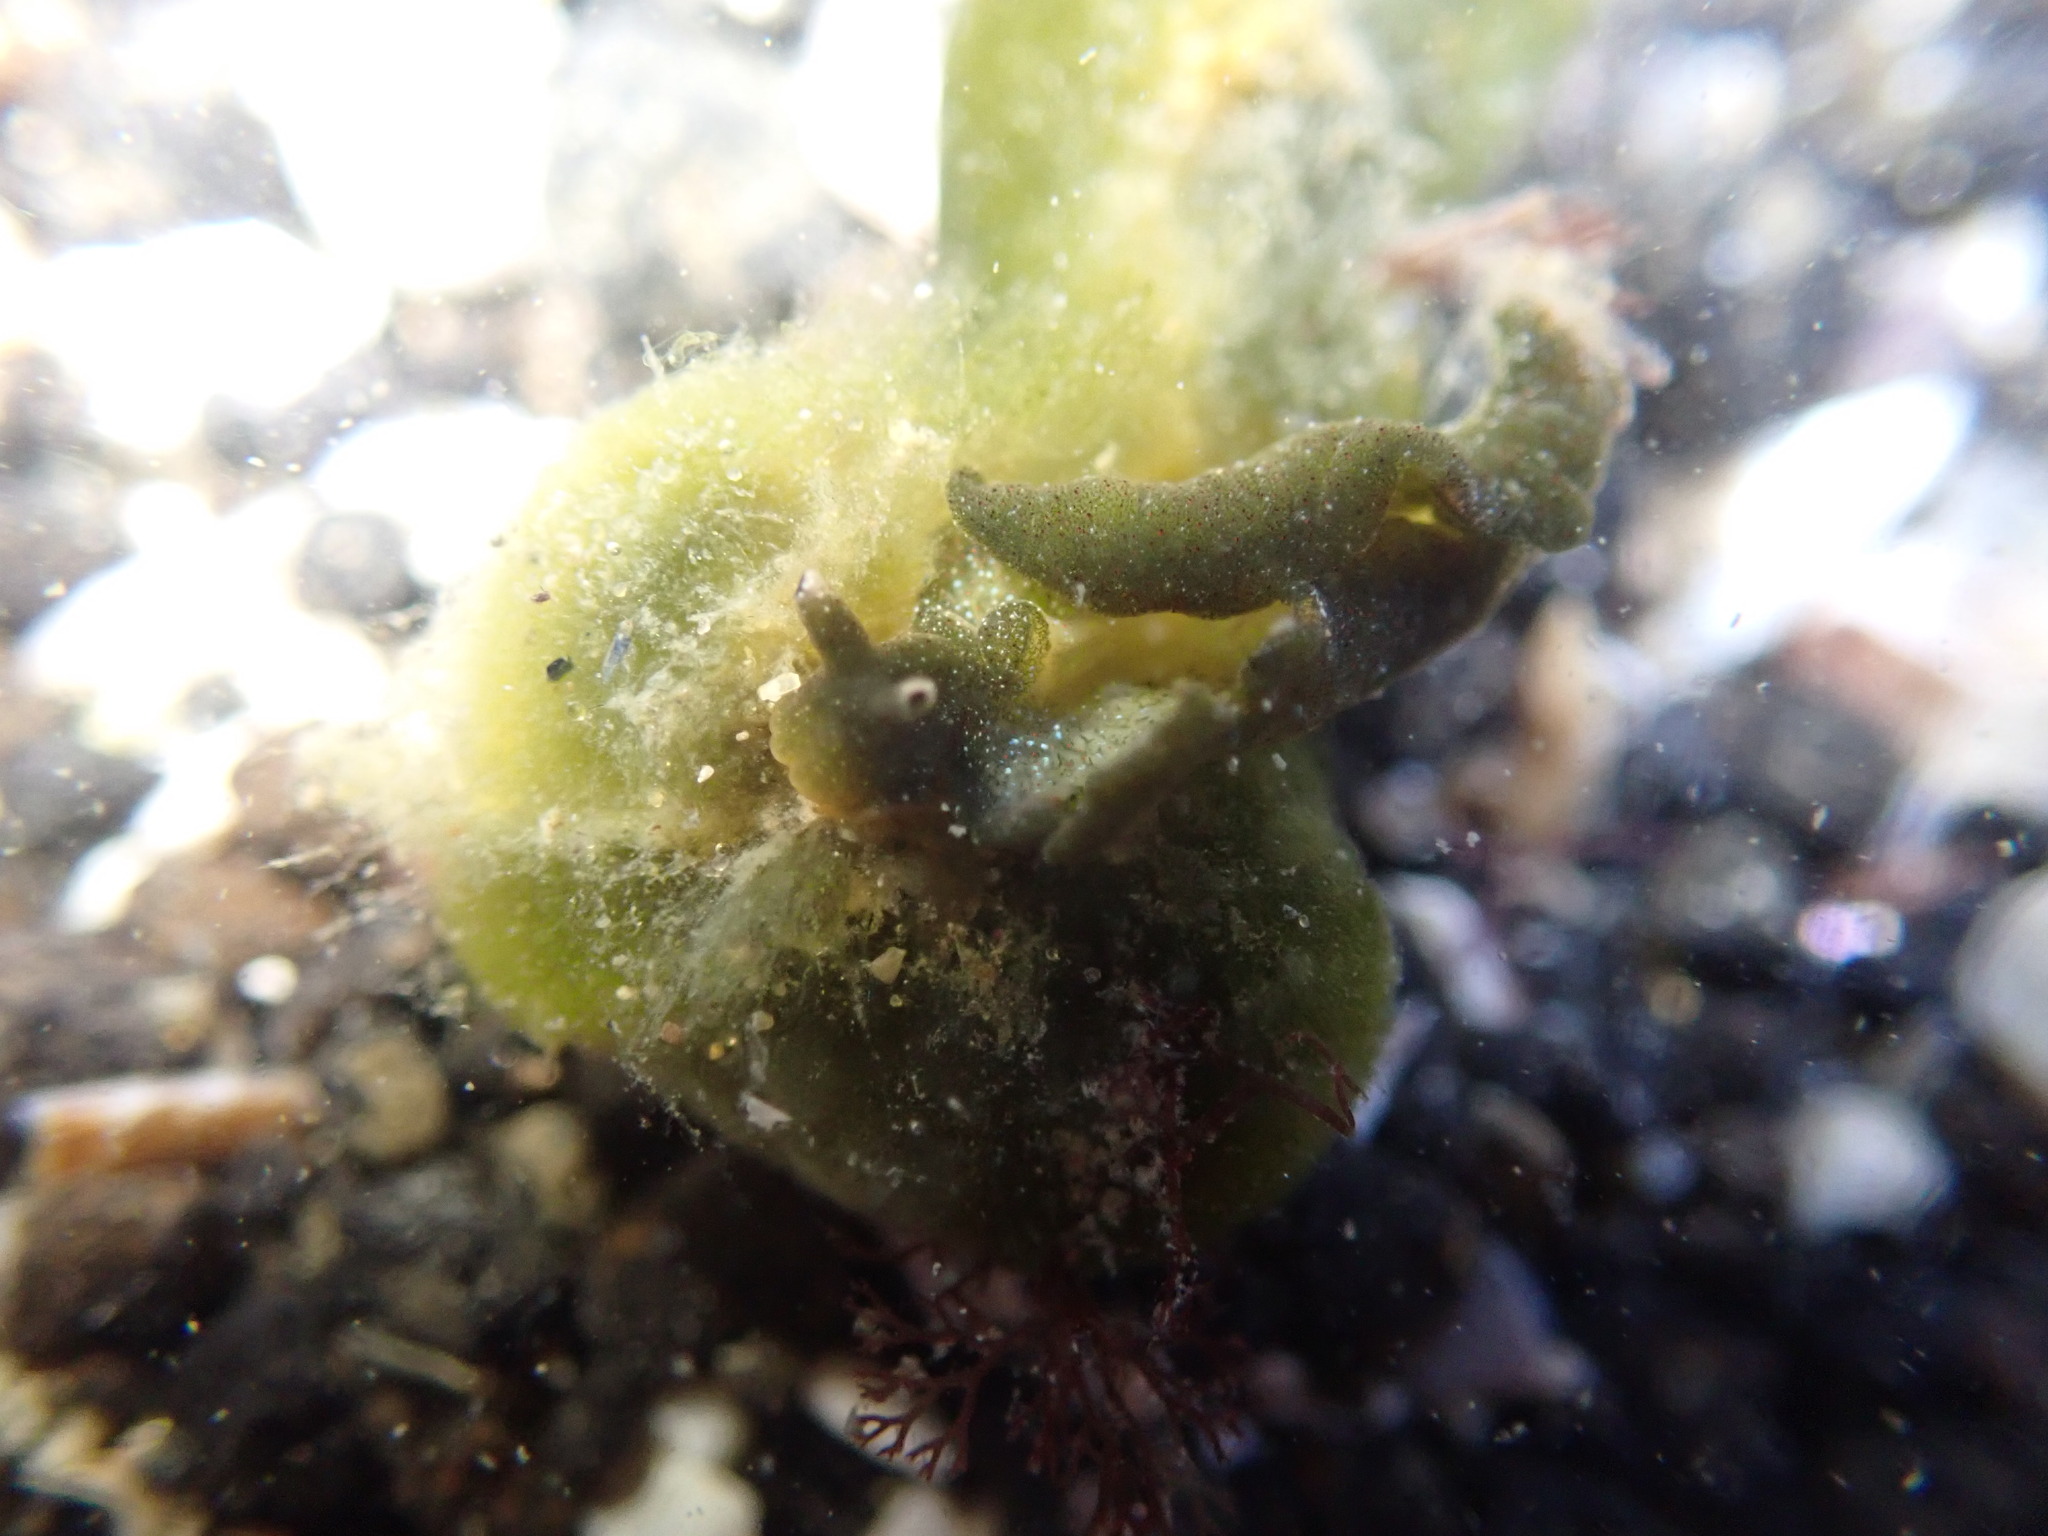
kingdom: Animalia
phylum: Mollusca
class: Gastropoda
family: Plakobranchidae
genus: Elysia
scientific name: Elysia maoria
